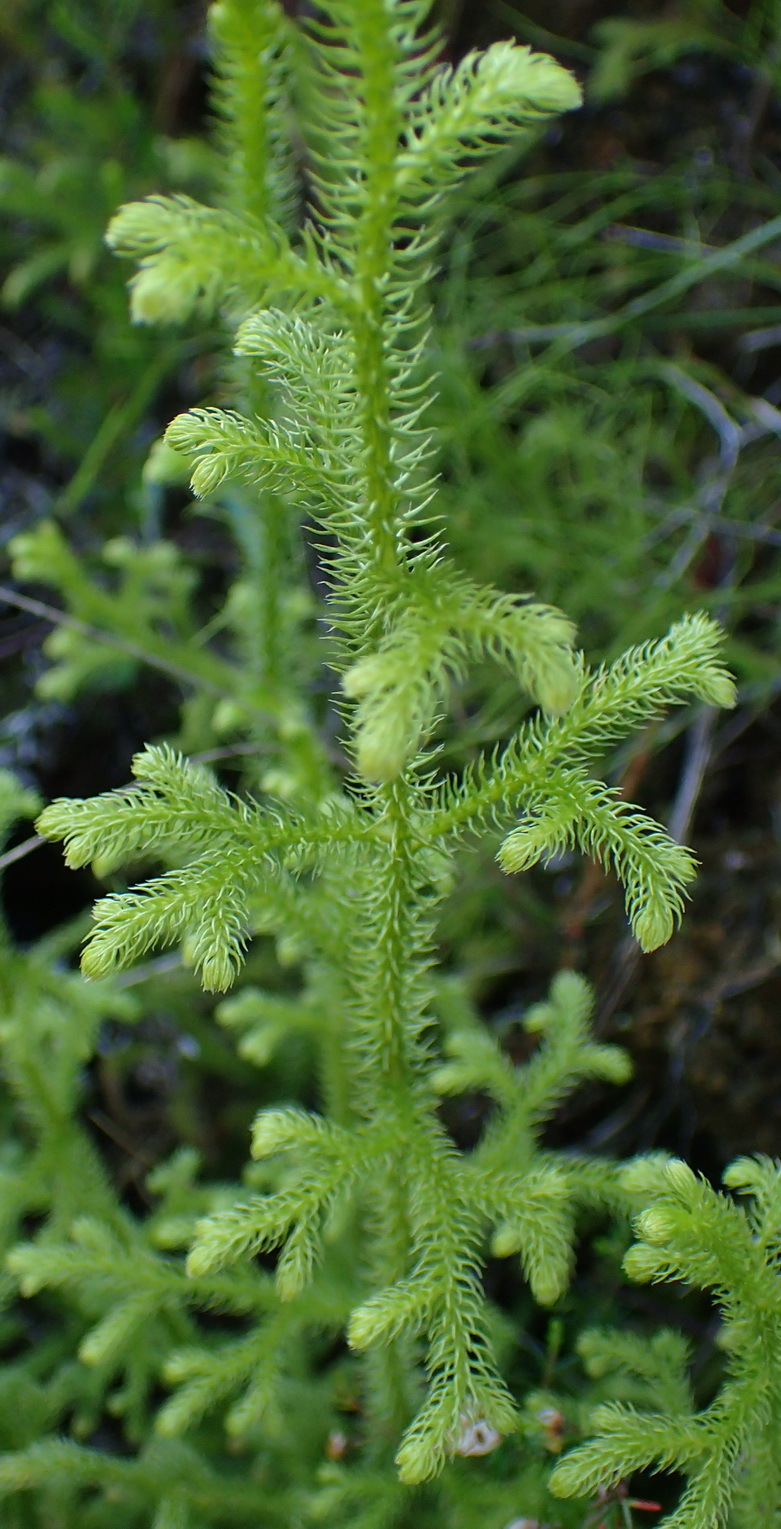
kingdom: Plantae
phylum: Tracheophyta
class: Lycopodiopsida
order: Lycopodiales
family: Lycopodiaceae
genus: Palhinhaea
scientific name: Palhinhaea cernua
